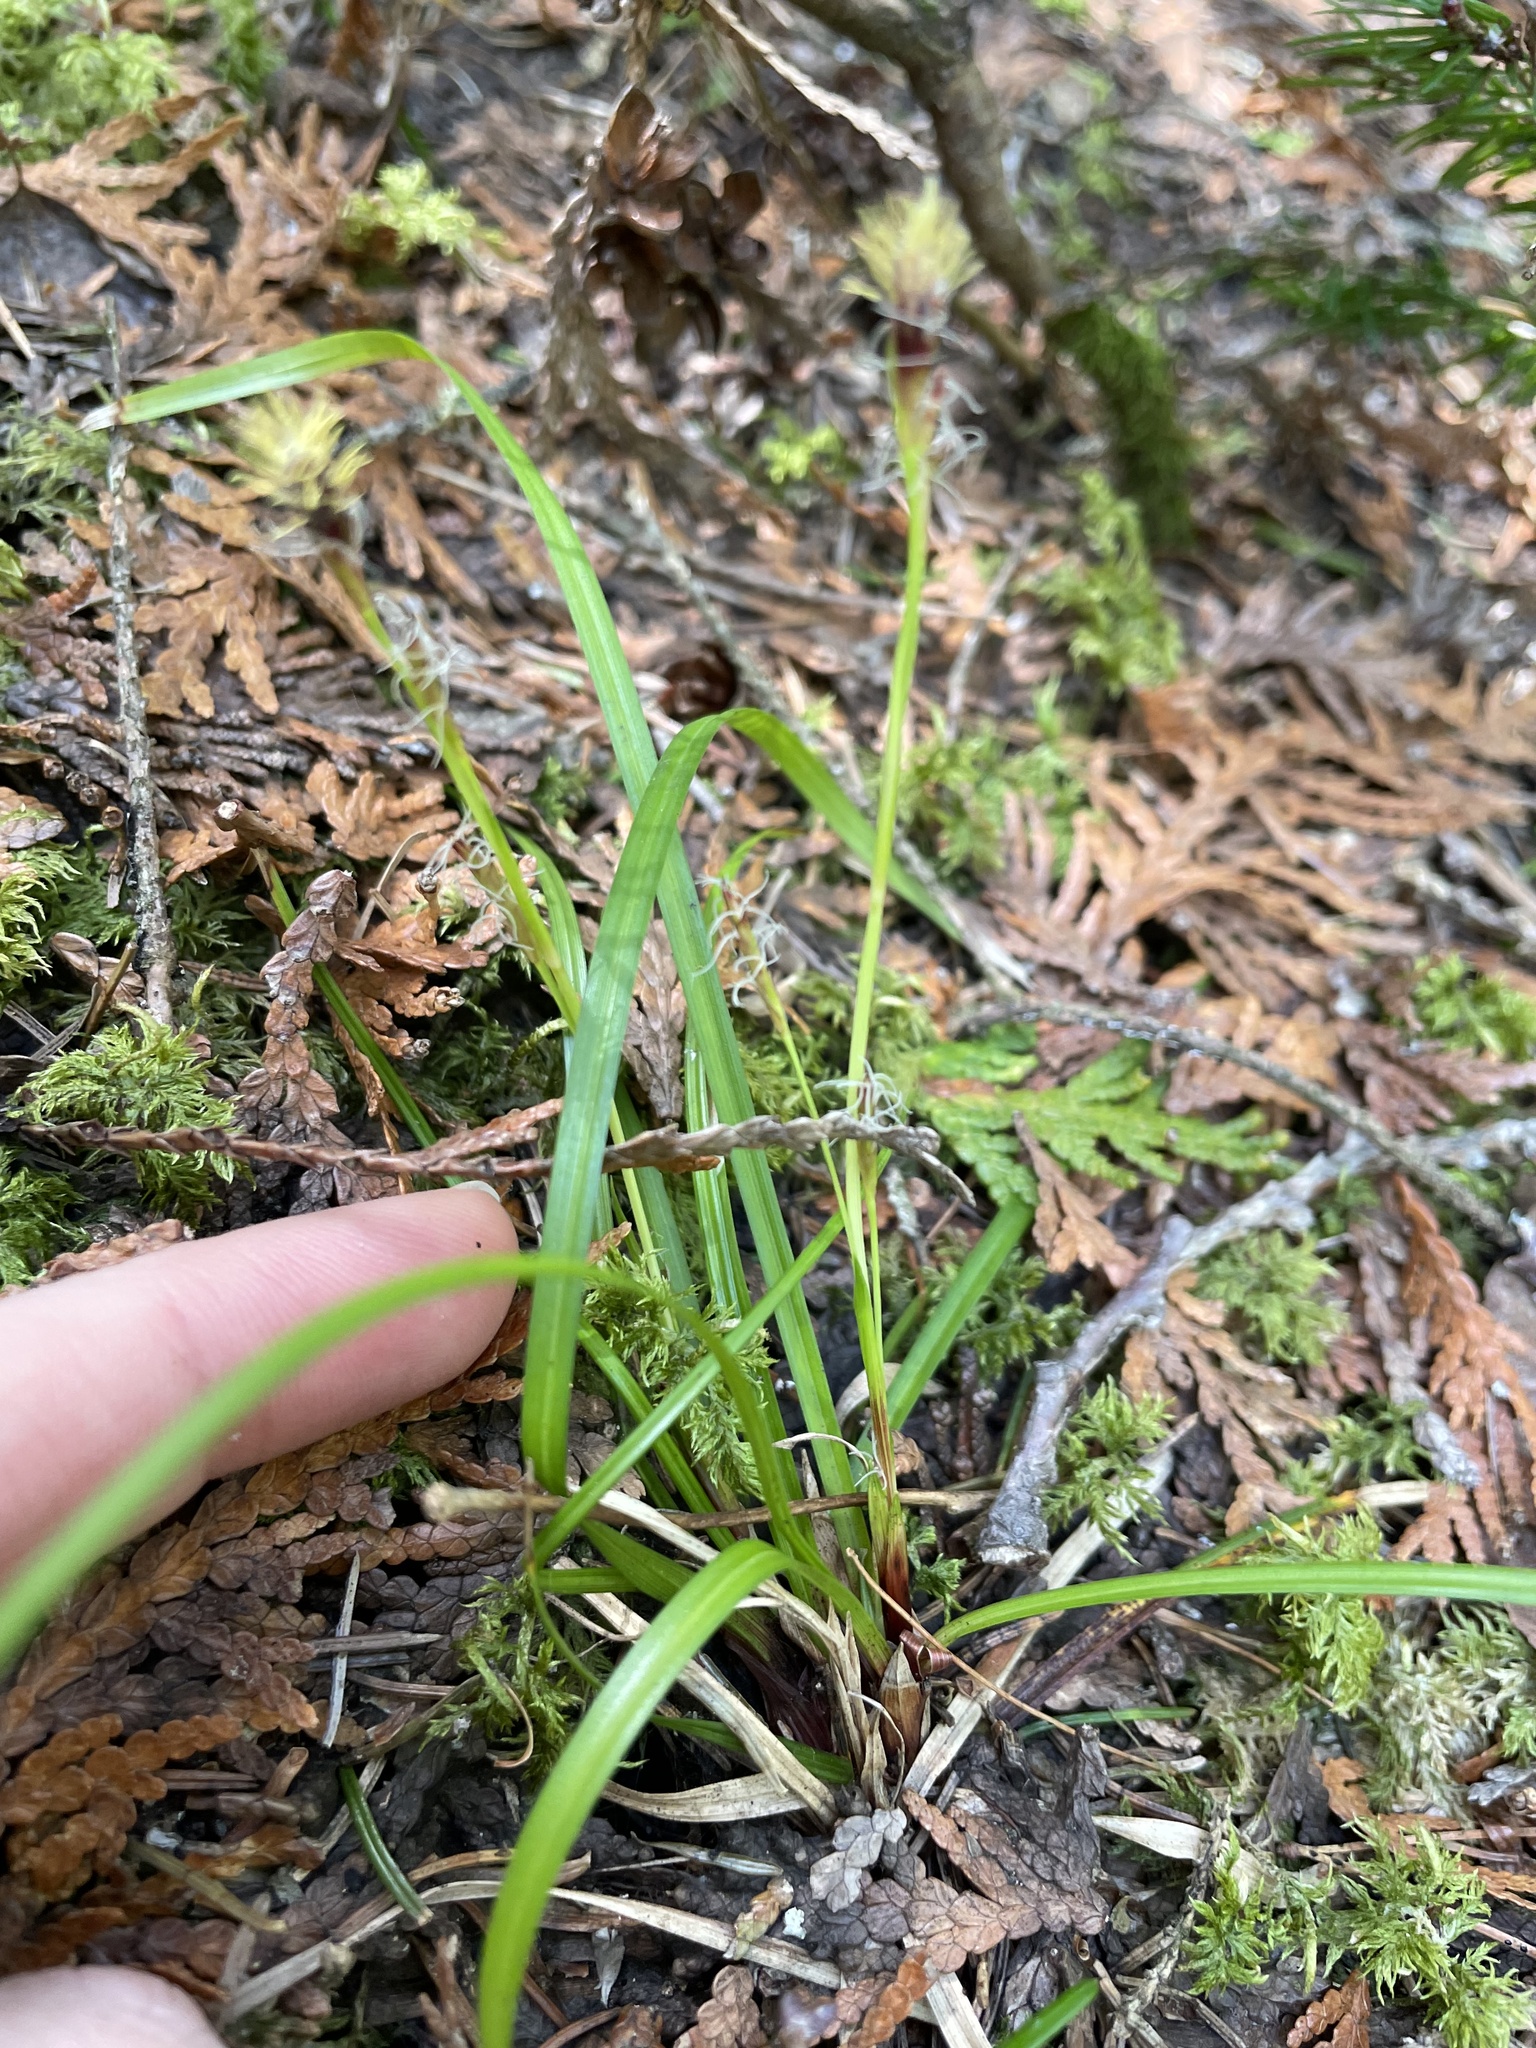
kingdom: Plantae
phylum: Tracheophyta
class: Liliopsida
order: Poales
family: Cyperaceae
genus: Carex
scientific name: Carex pedunculata
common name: Pedunculate sedge
